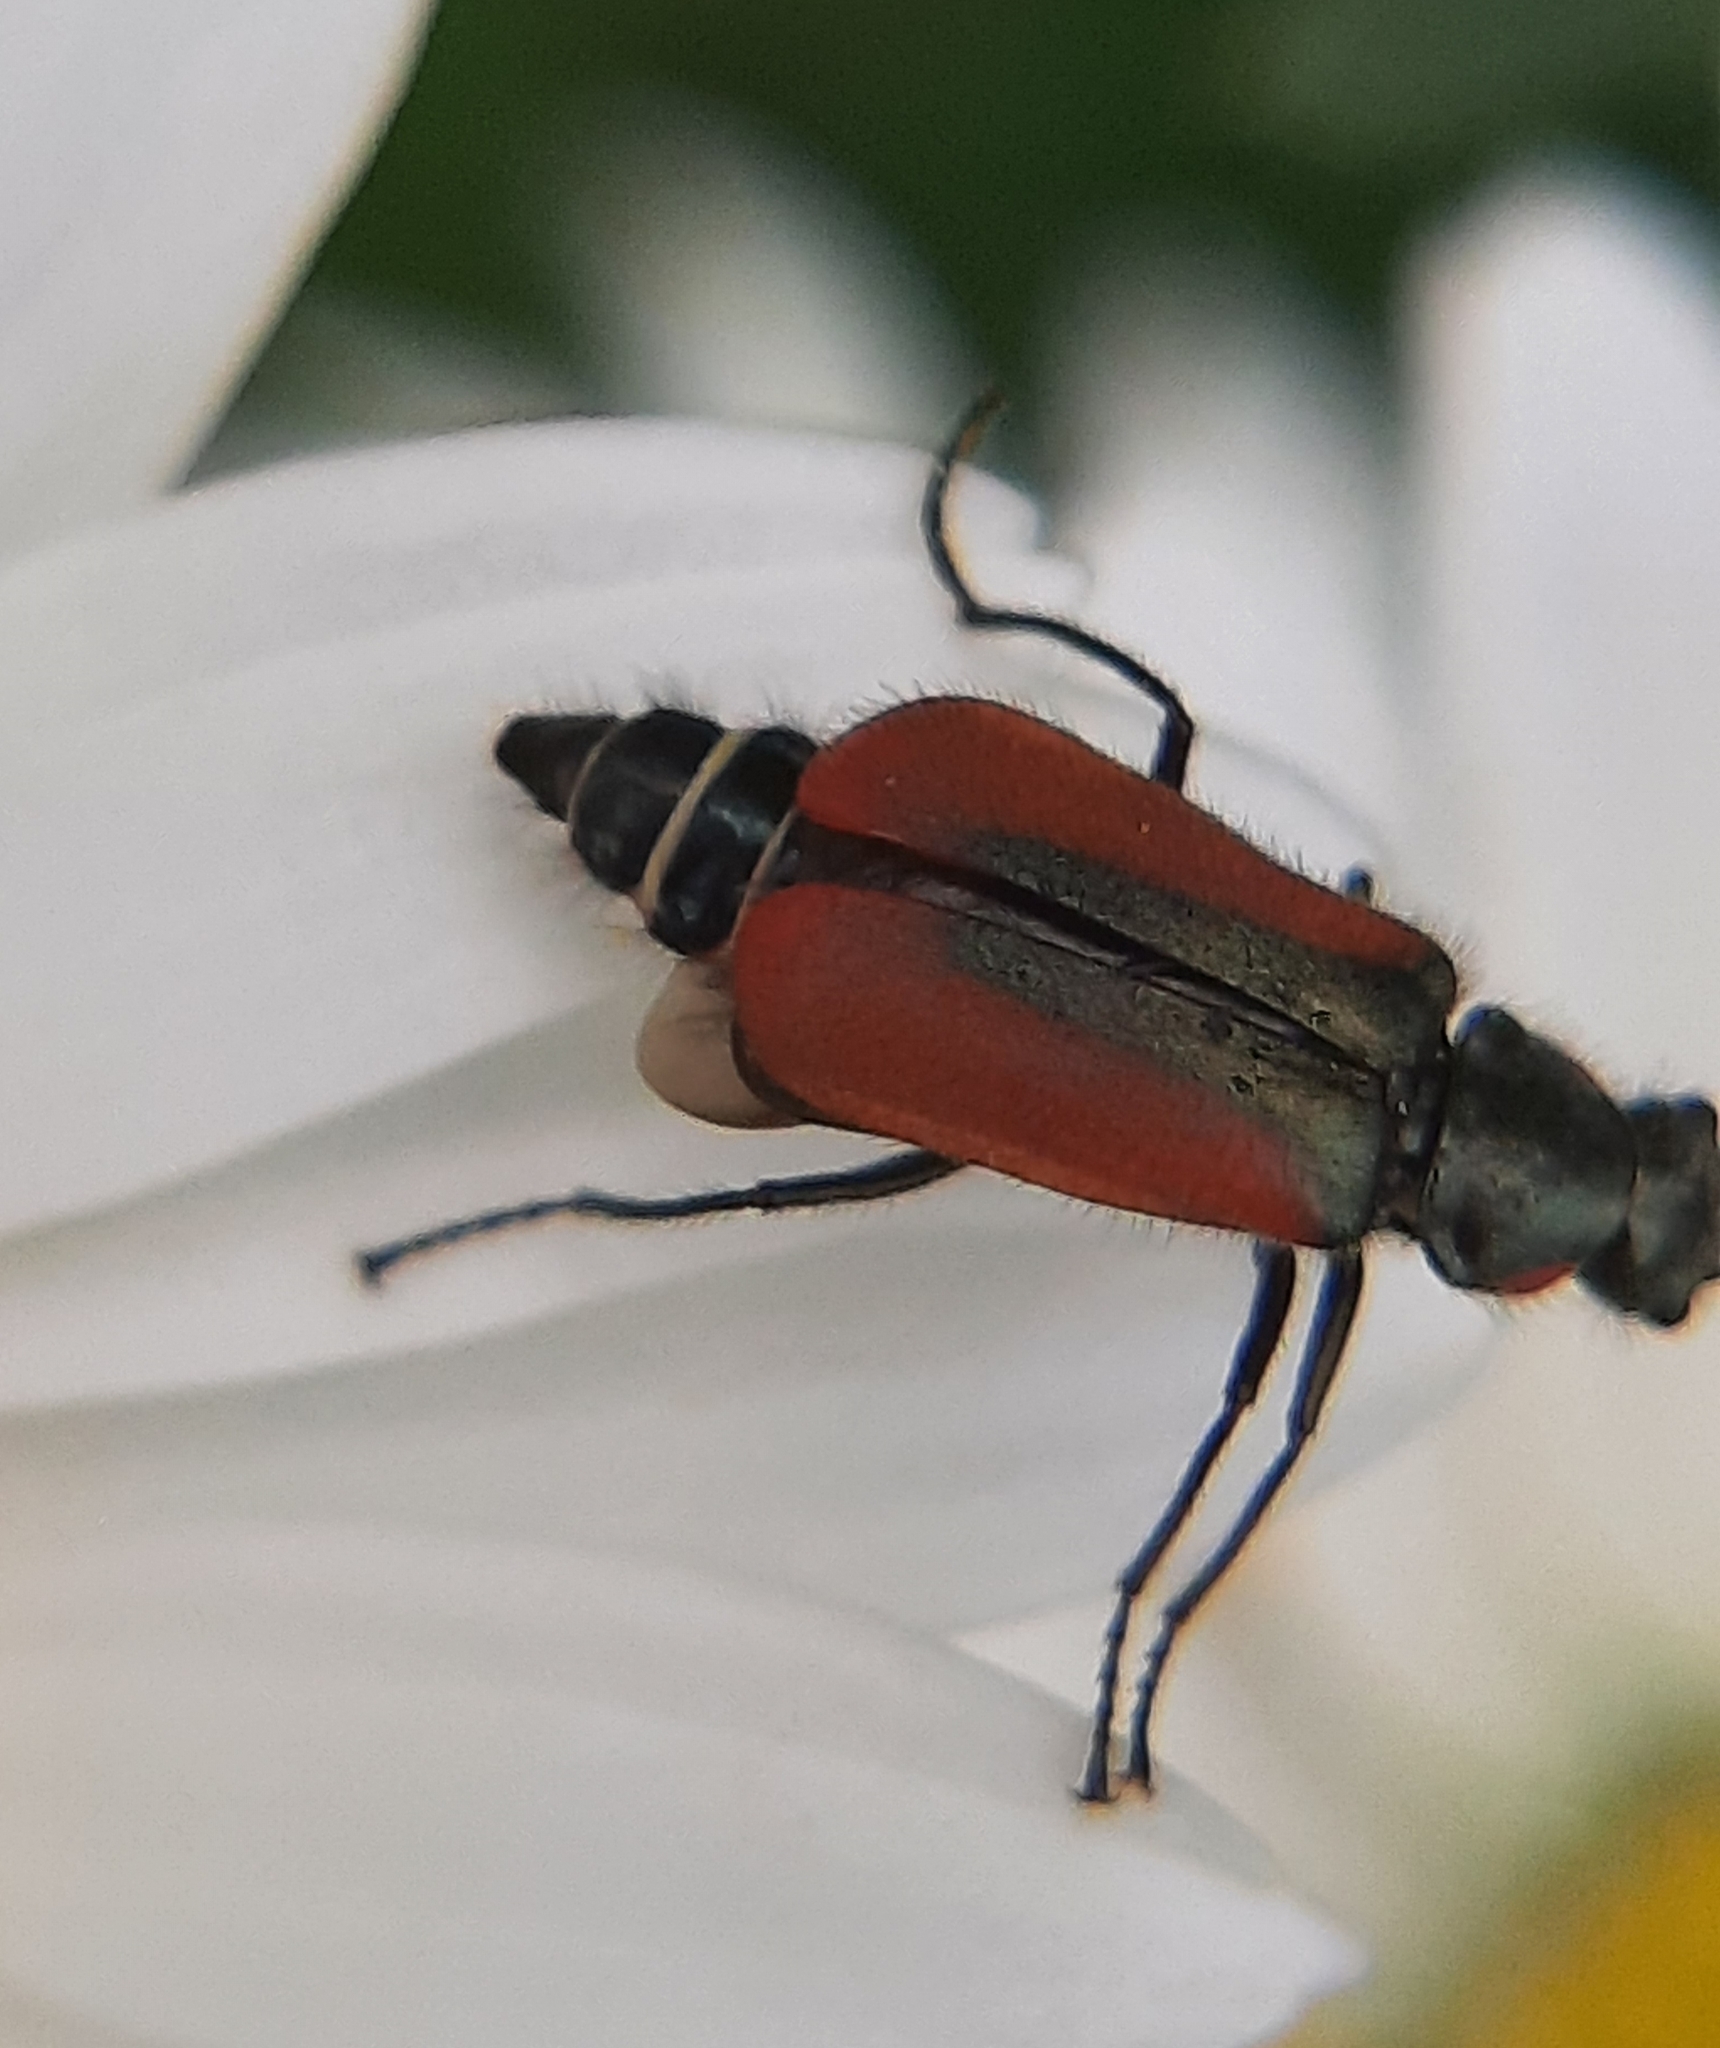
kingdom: Animalia
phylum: Arthropoda
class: Insecta
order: Coleoptera
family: Melyridae
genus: Malachius
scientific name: Malachius aeneus
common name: Scarlet malachite beetle
